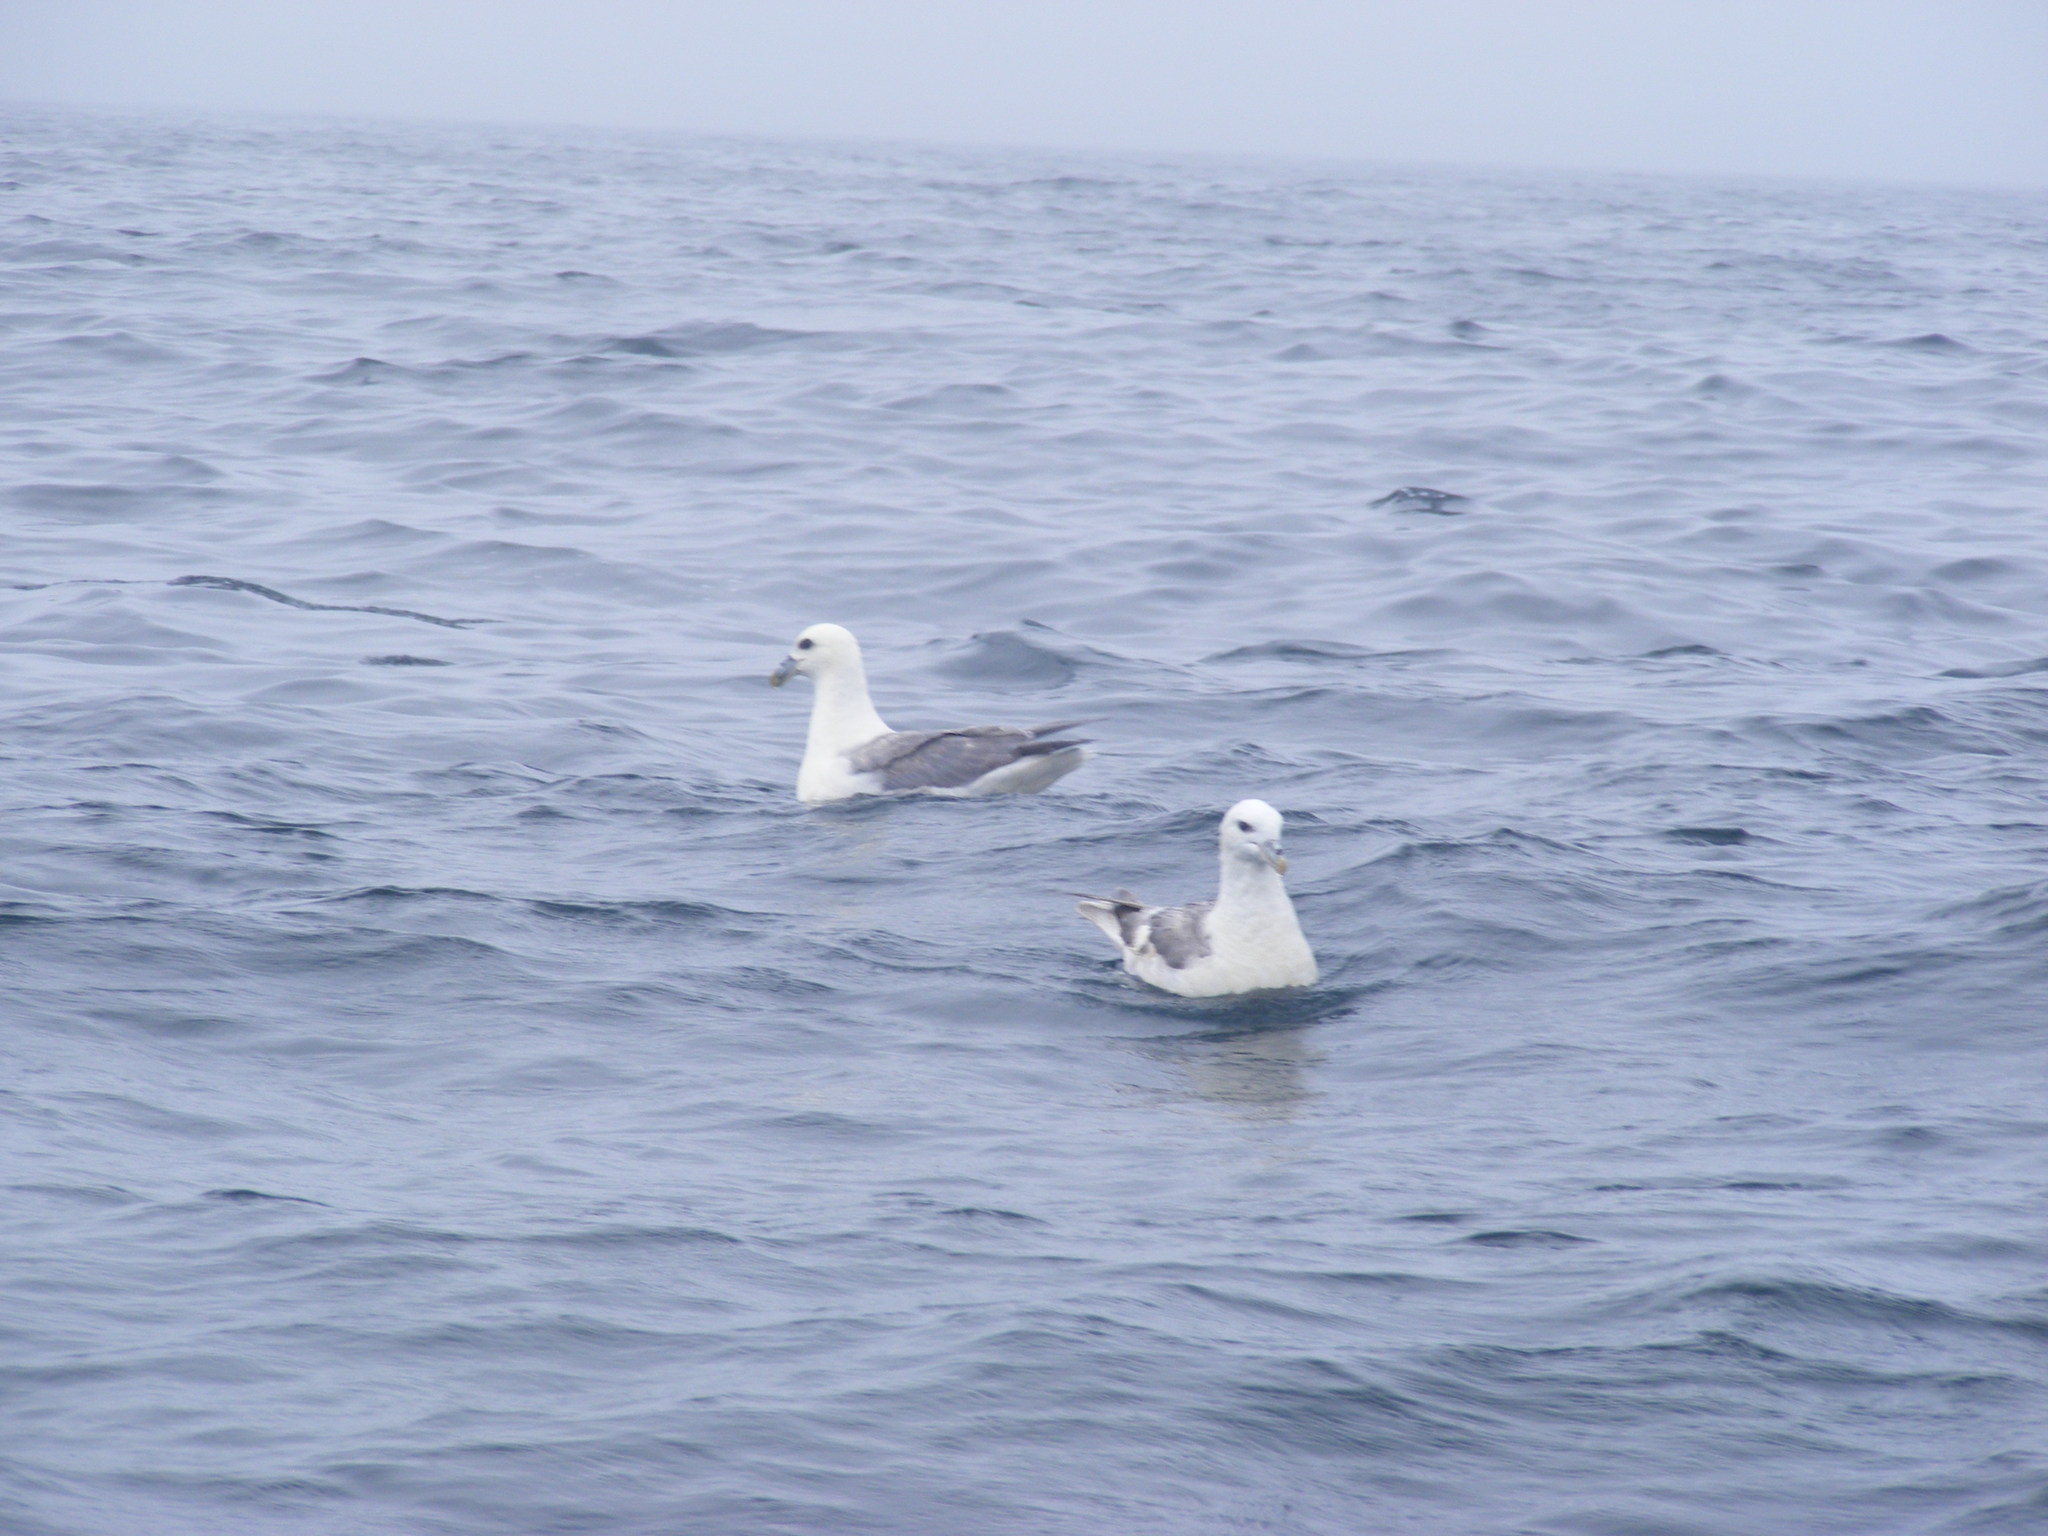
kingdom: Animalia
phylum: Chordata
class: Aves
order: Procellariiformes
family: Procellariidae
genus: Fulmarus
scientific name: Fulmarus glacialis
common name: Northern fulmar
